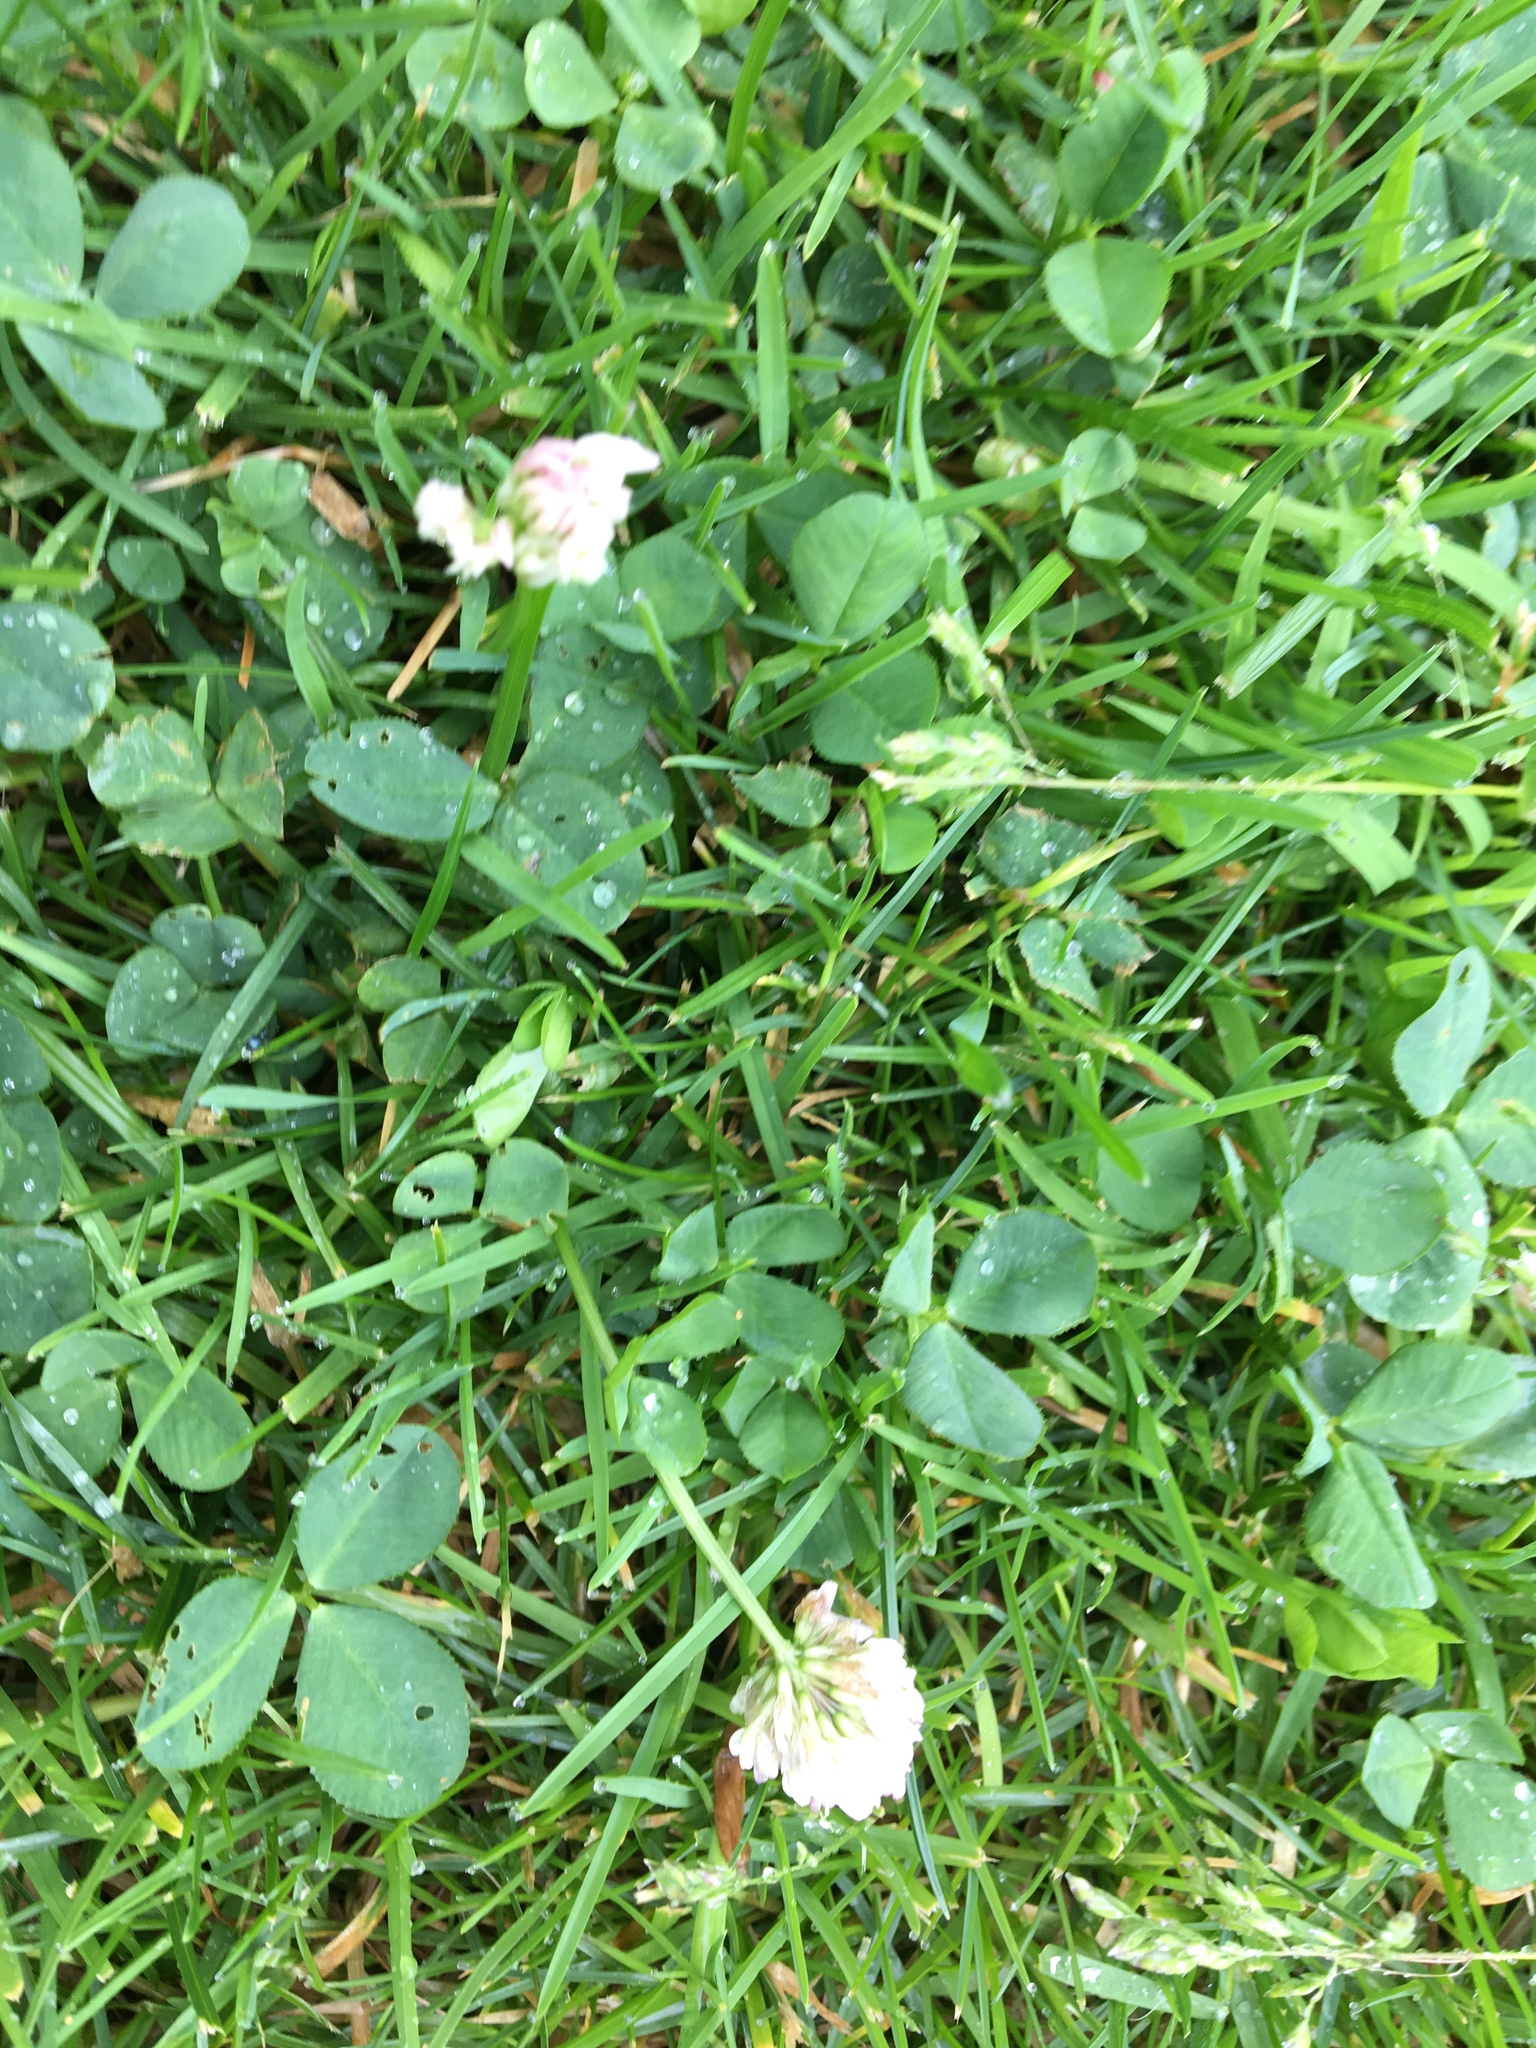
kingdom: Plantae
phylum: Tracheophyta
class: Magnoliopsida
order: Fabales
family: Fabaceae
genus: Trifolium
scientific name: Trifolium repens
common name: White clover
